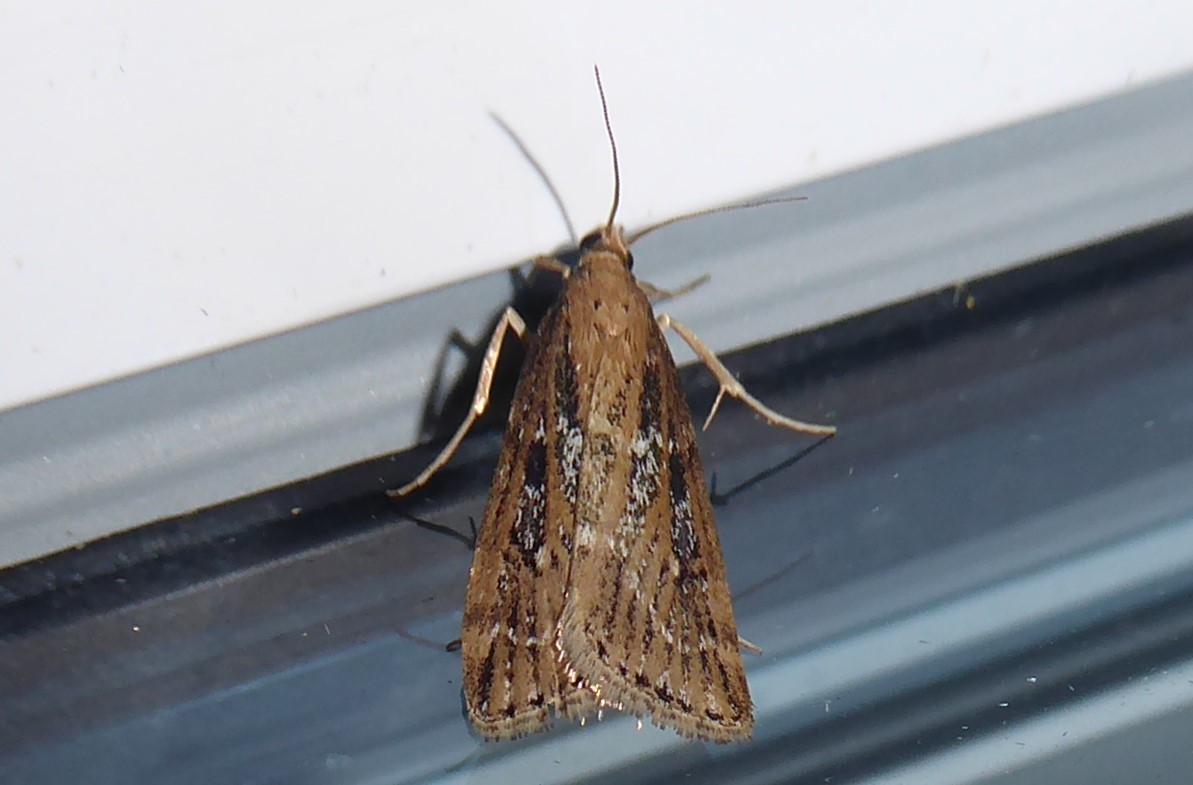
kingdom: Animalia
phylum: Arthropoda
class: Insecta
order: Lepidoptera
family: Crambidae
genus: Eudonia
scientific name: Eudonia octophora
